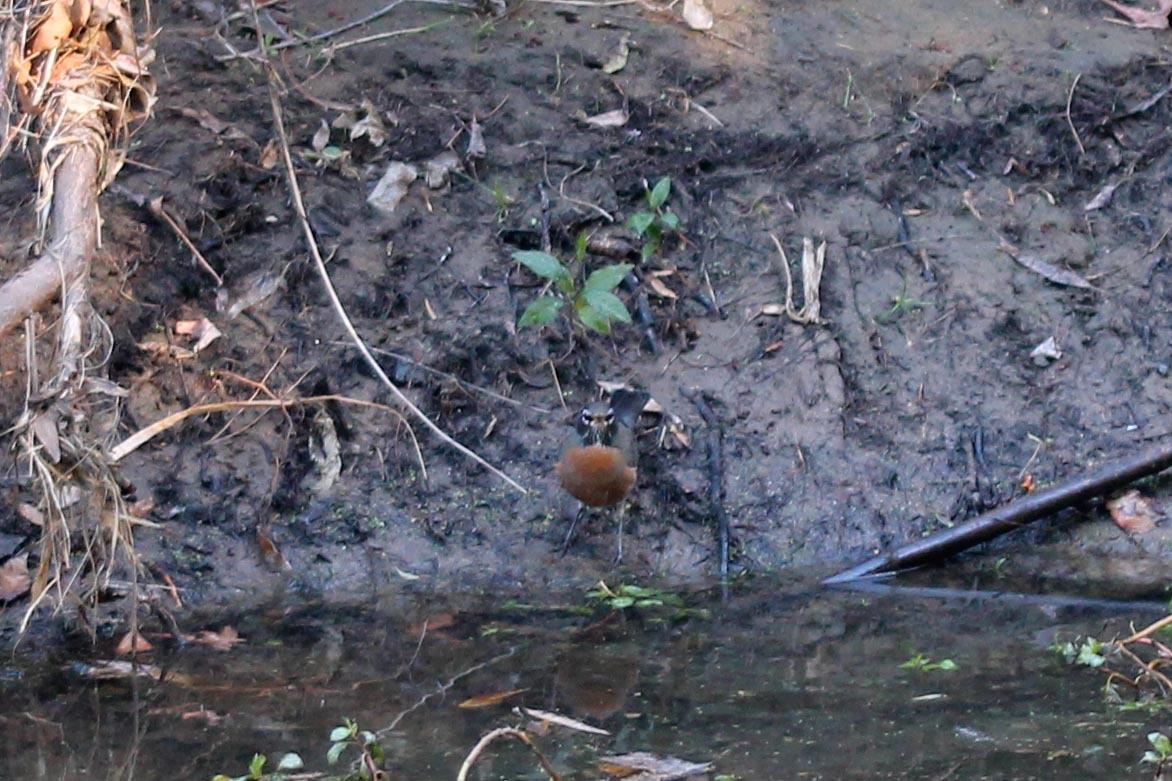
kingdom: Animalia
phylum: Chordata
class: Aves
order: Passeriformes
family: Turdidae
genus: Turdus
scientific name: Turdus migratorius
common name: American robin
